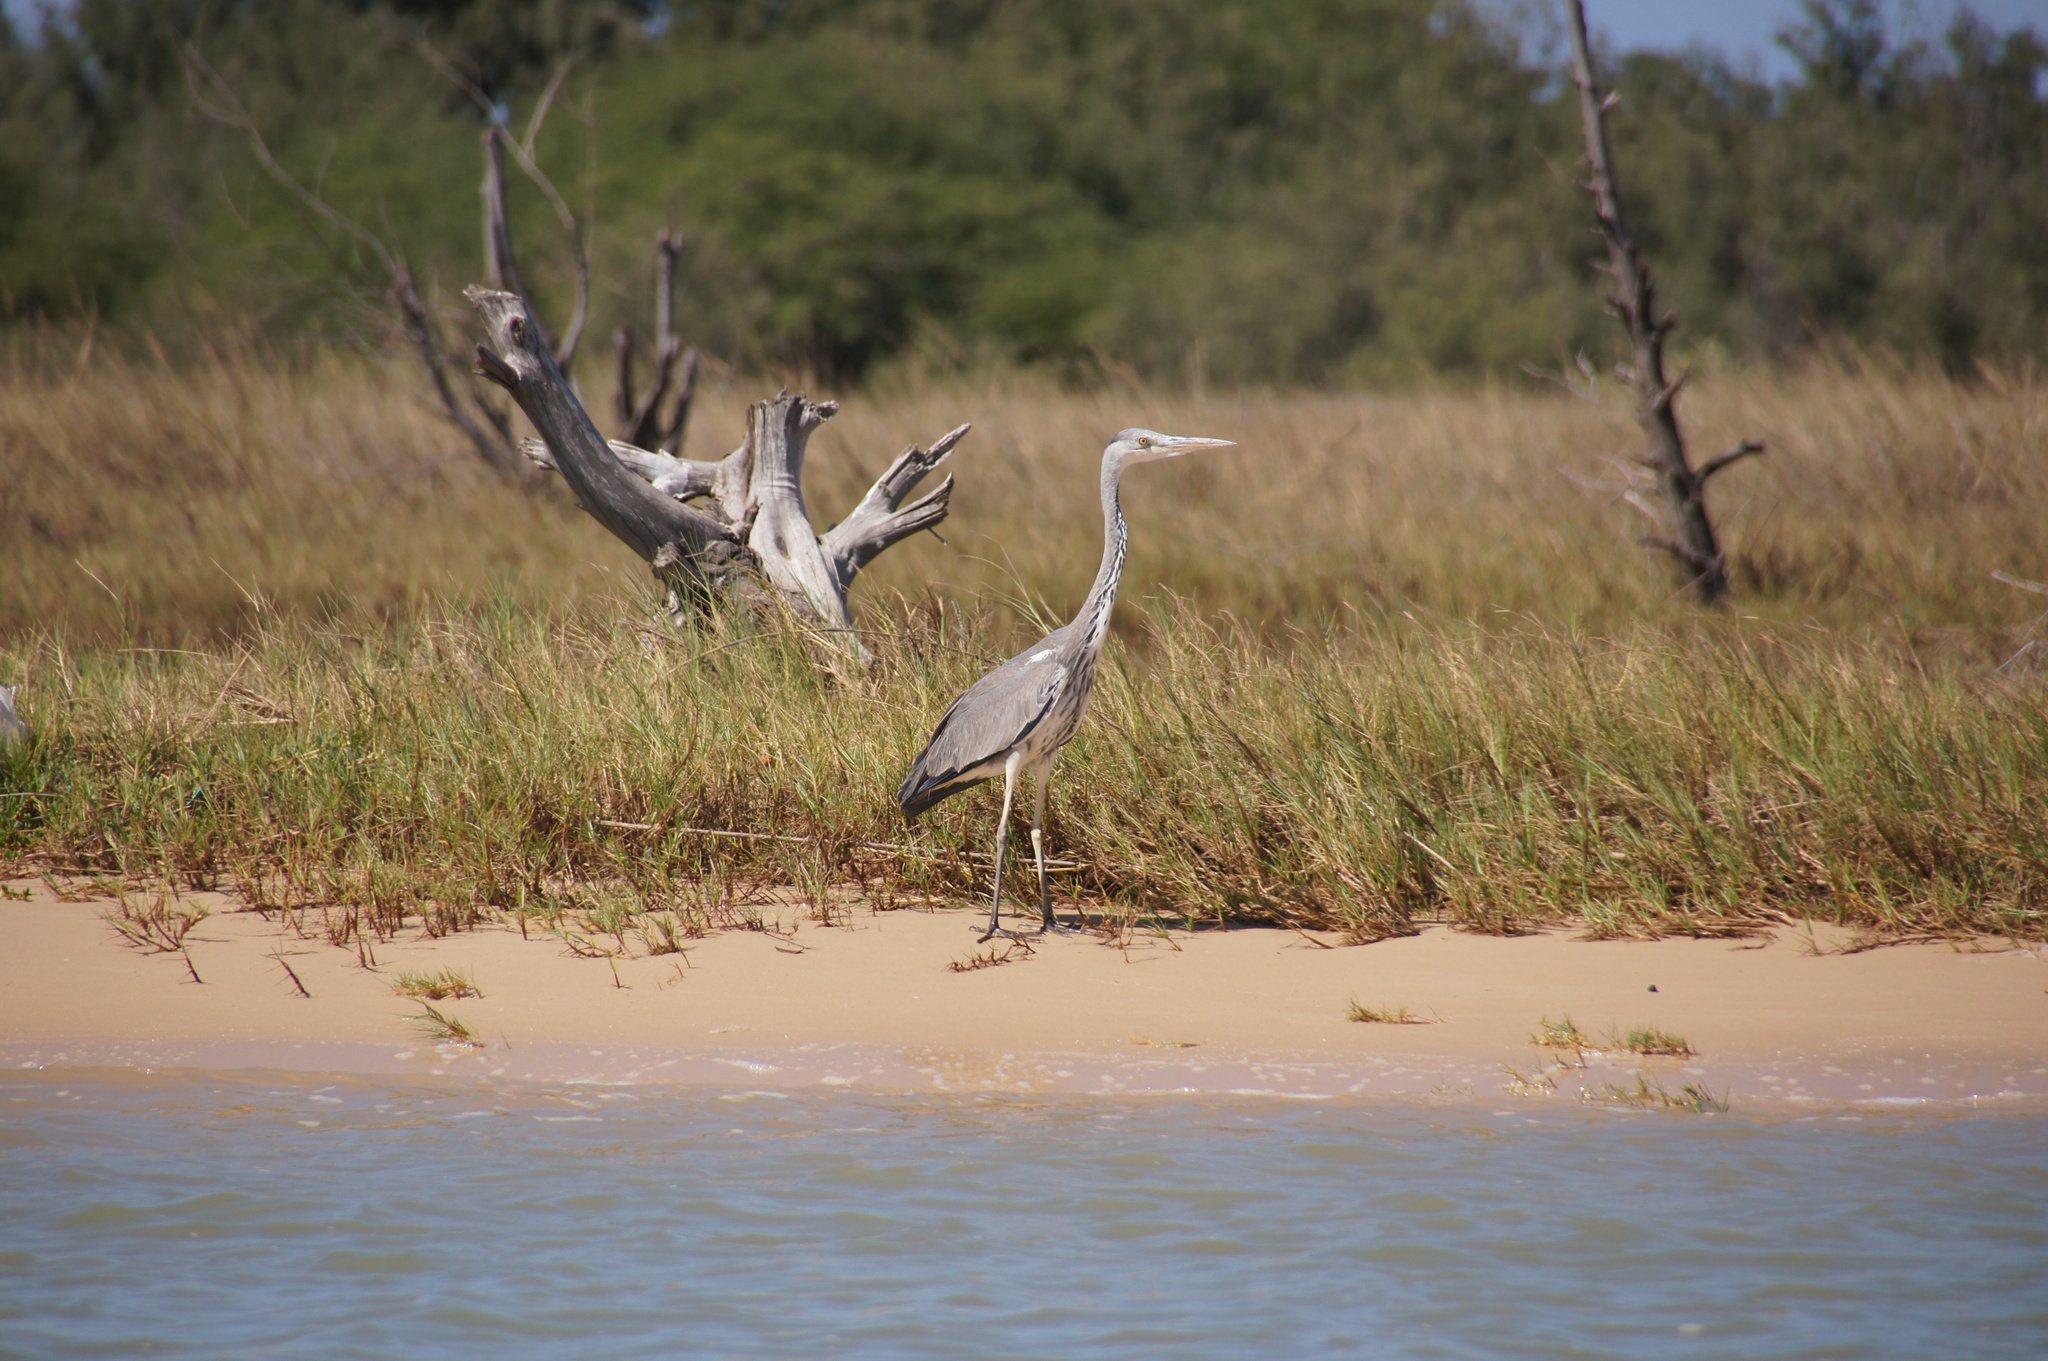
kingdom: Animalia
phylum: Chordata
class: Aves
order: Pelecaniformes
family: Ardeidae
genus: Ardea
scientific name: Ardea cinerea
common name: Grey heron
